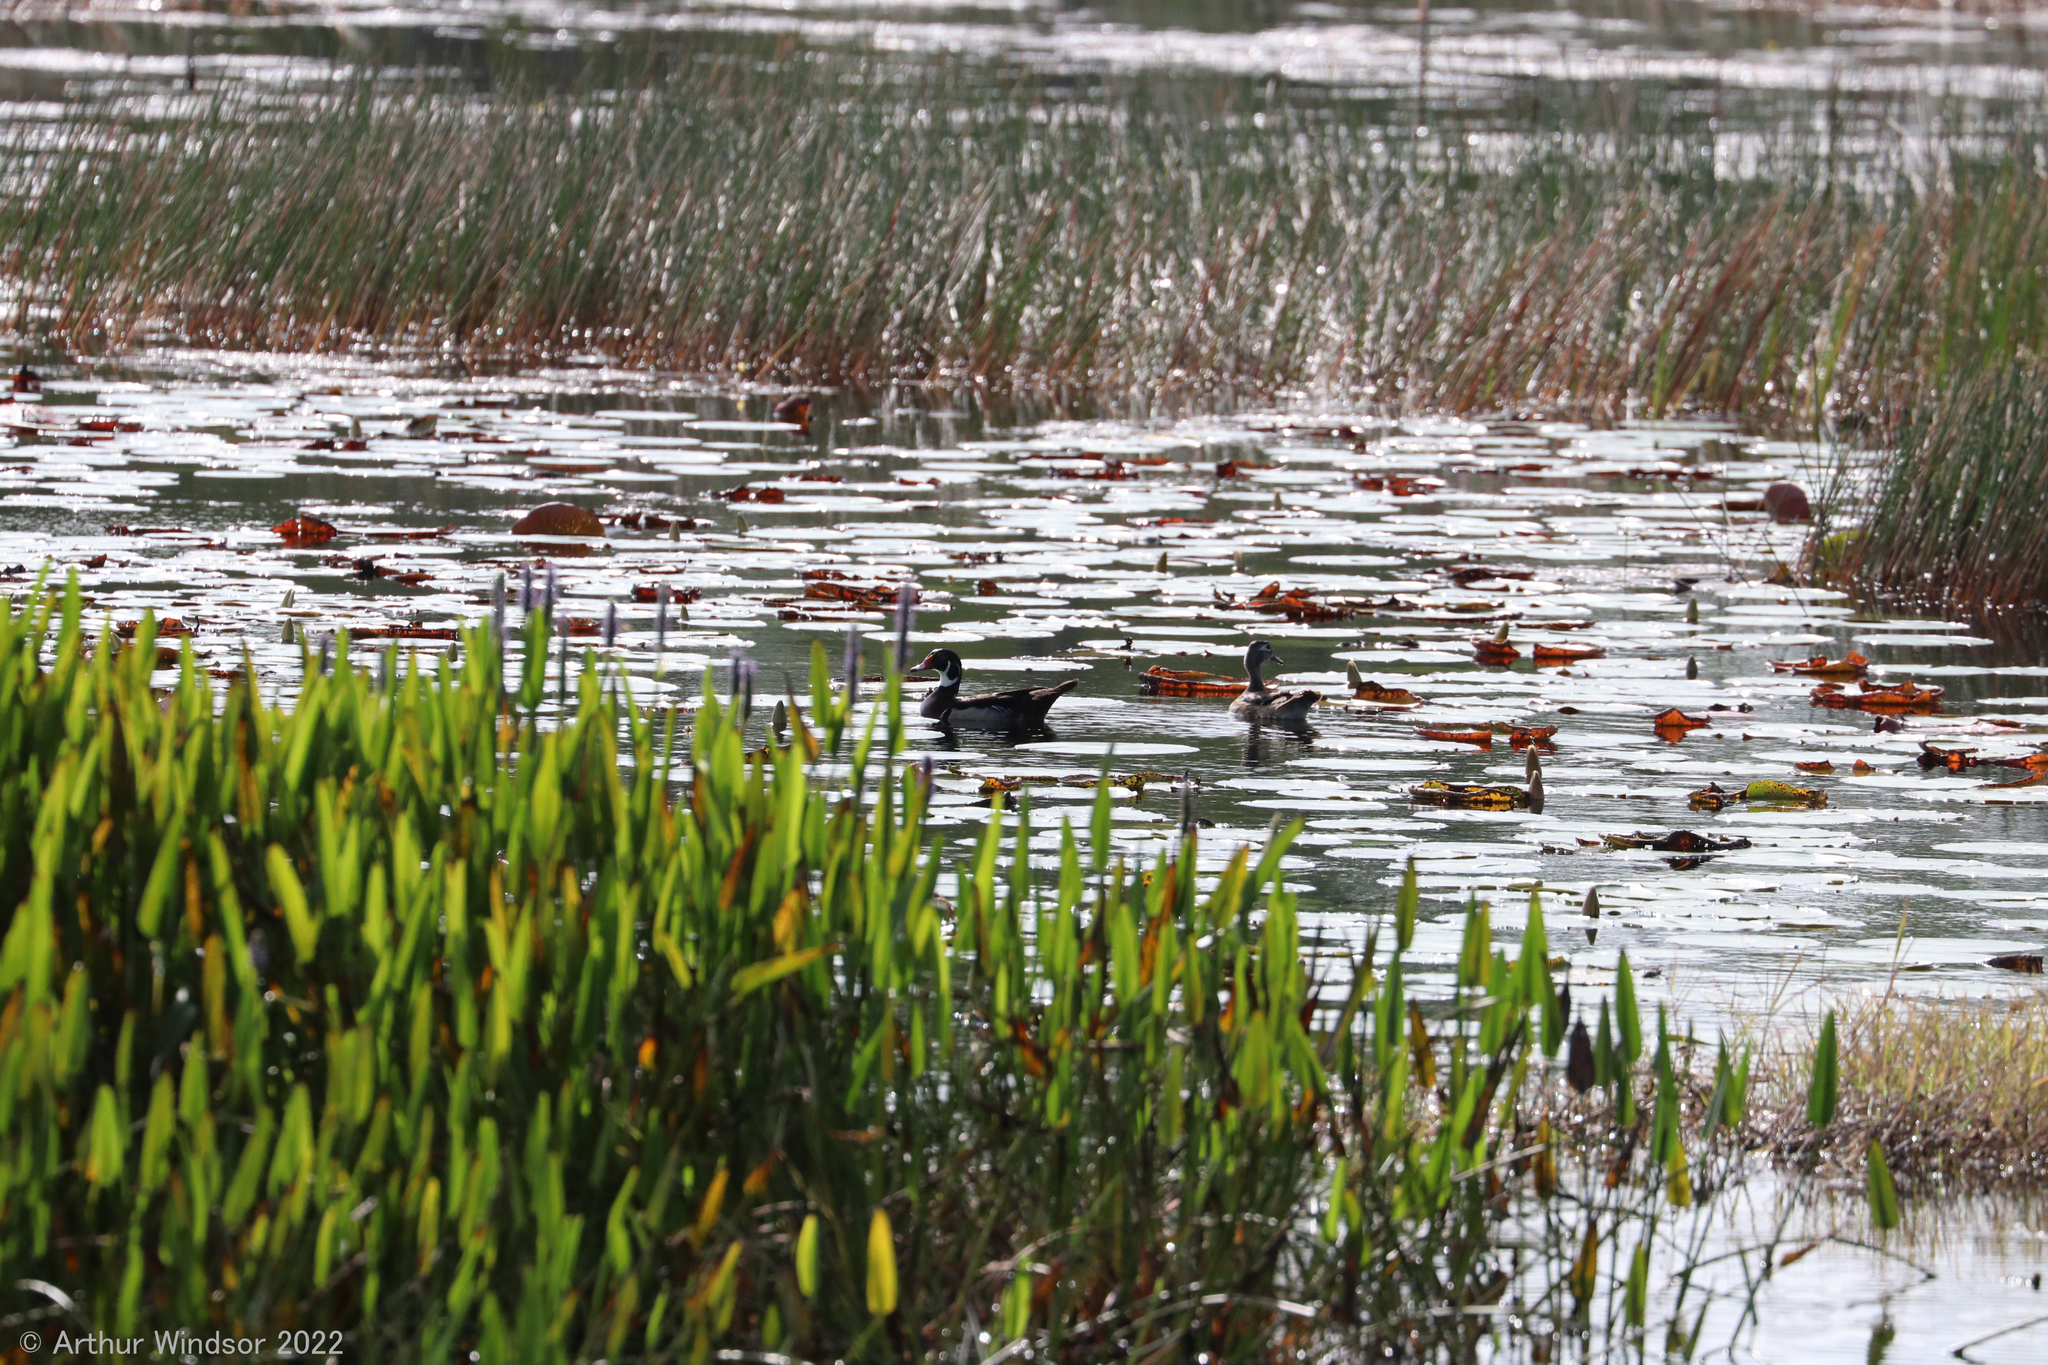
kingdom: Animalia
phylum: Chordata
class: Aves
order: Anseriformes
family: Anatidae
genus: Aix
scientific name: Aix sponsa
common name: Wood duck
